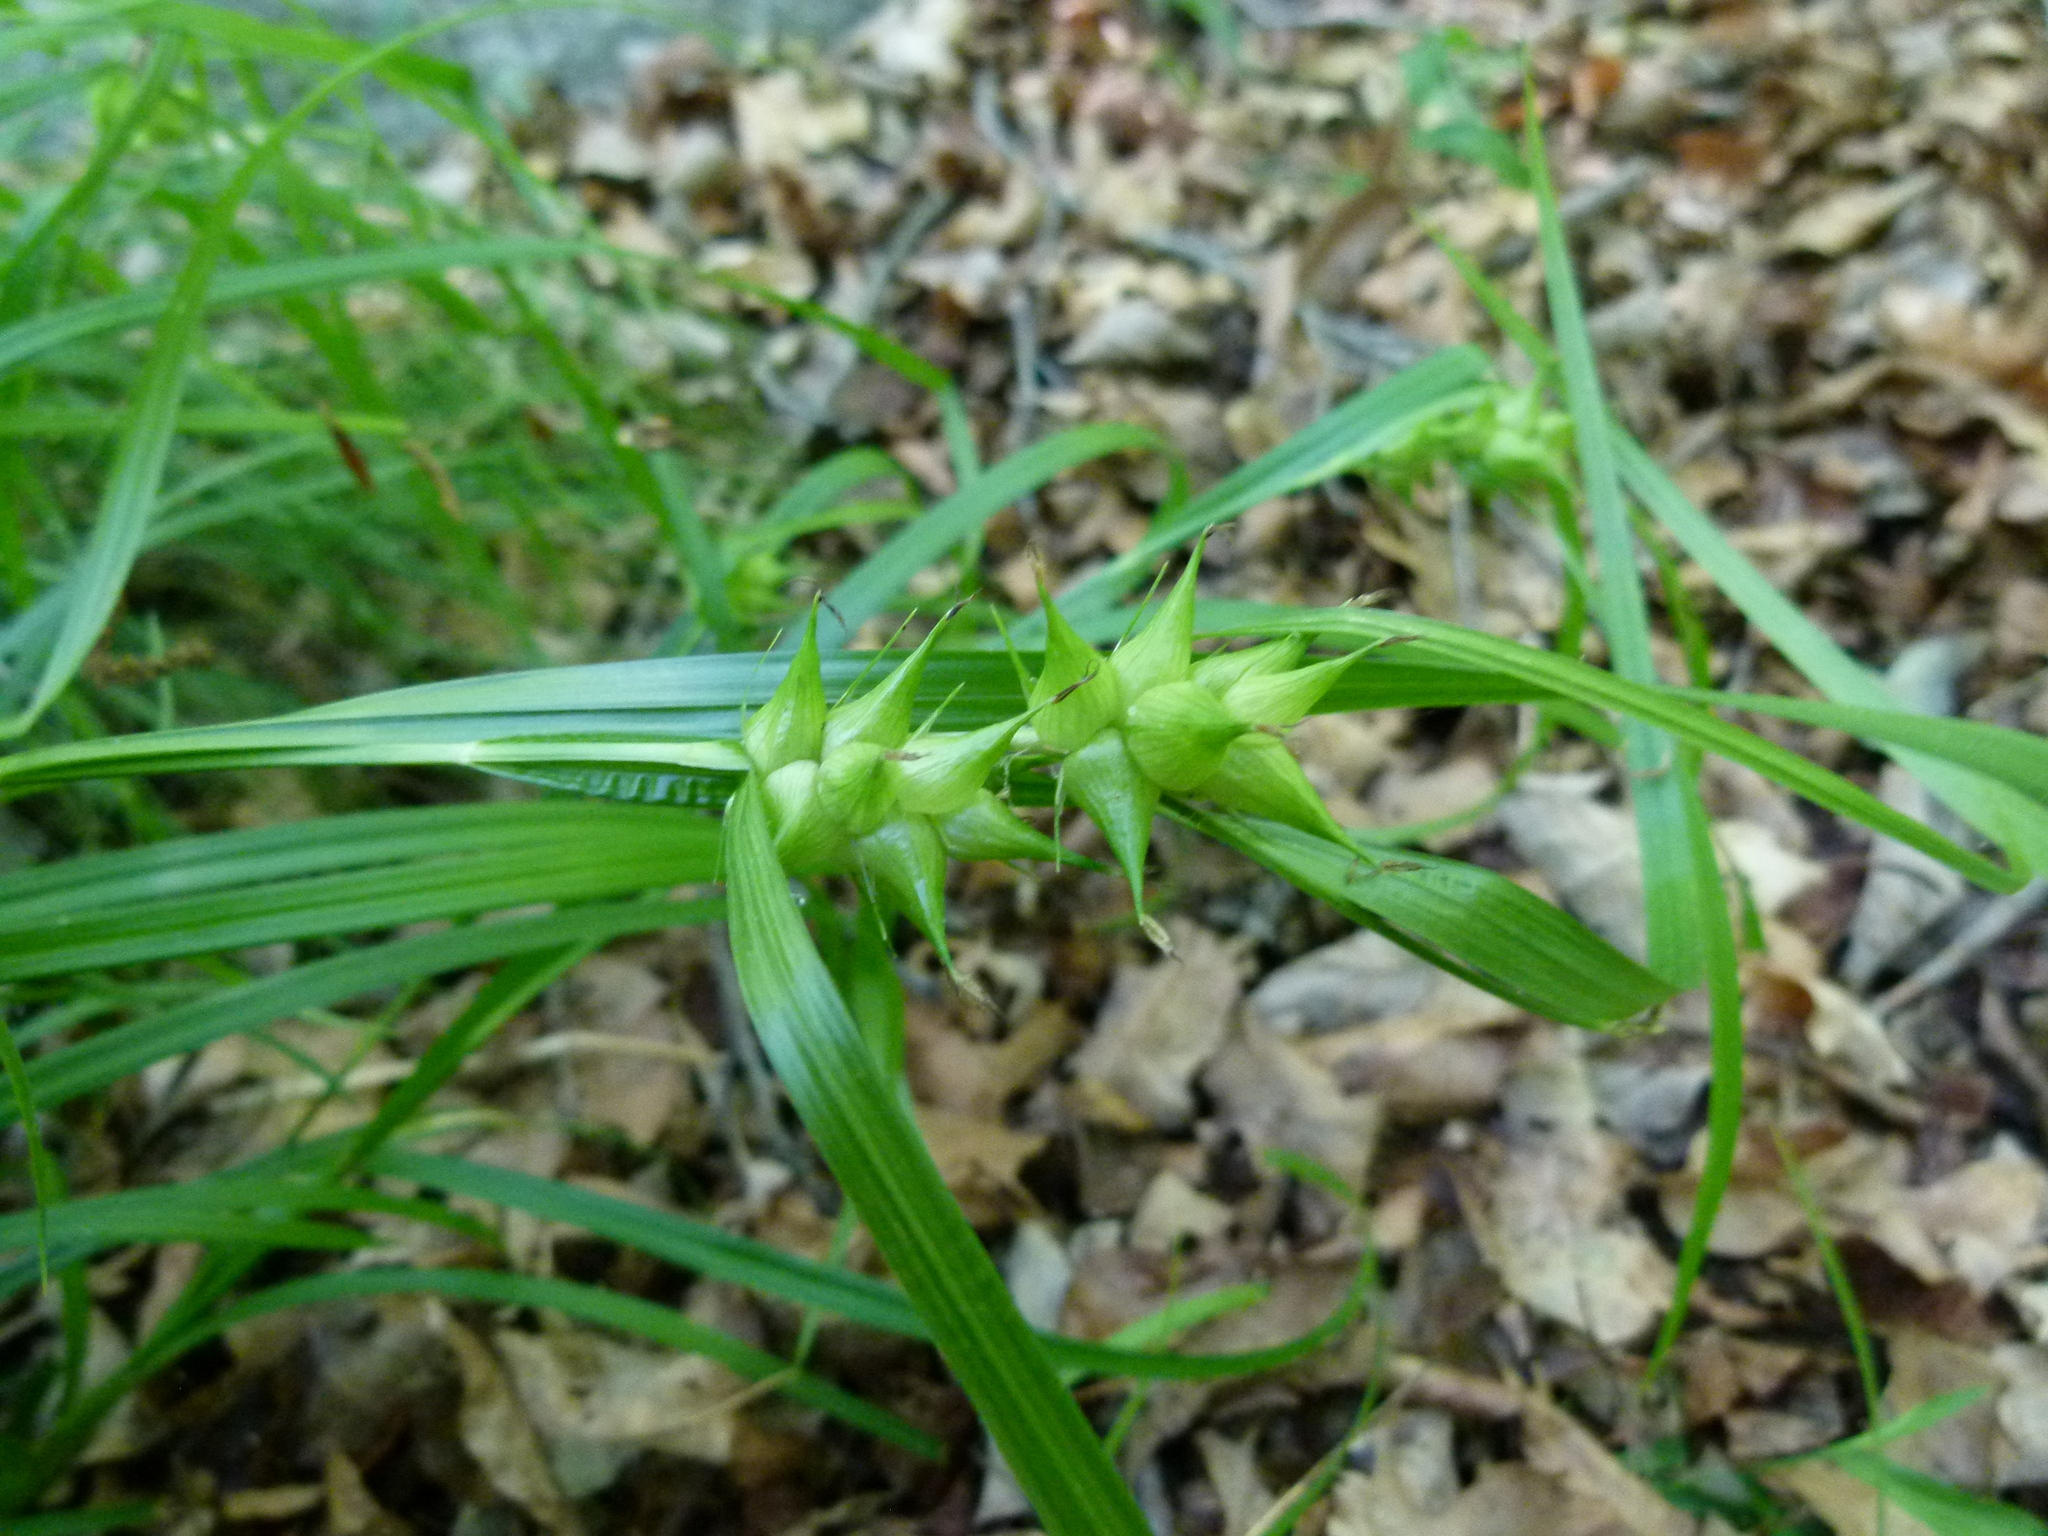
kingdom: Plantae
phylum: Tracheophyta
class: Liliopsida
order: Poales
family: Cyperaceae
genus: Carex
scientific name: Carex intumescens
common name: Greater bladder sedge
